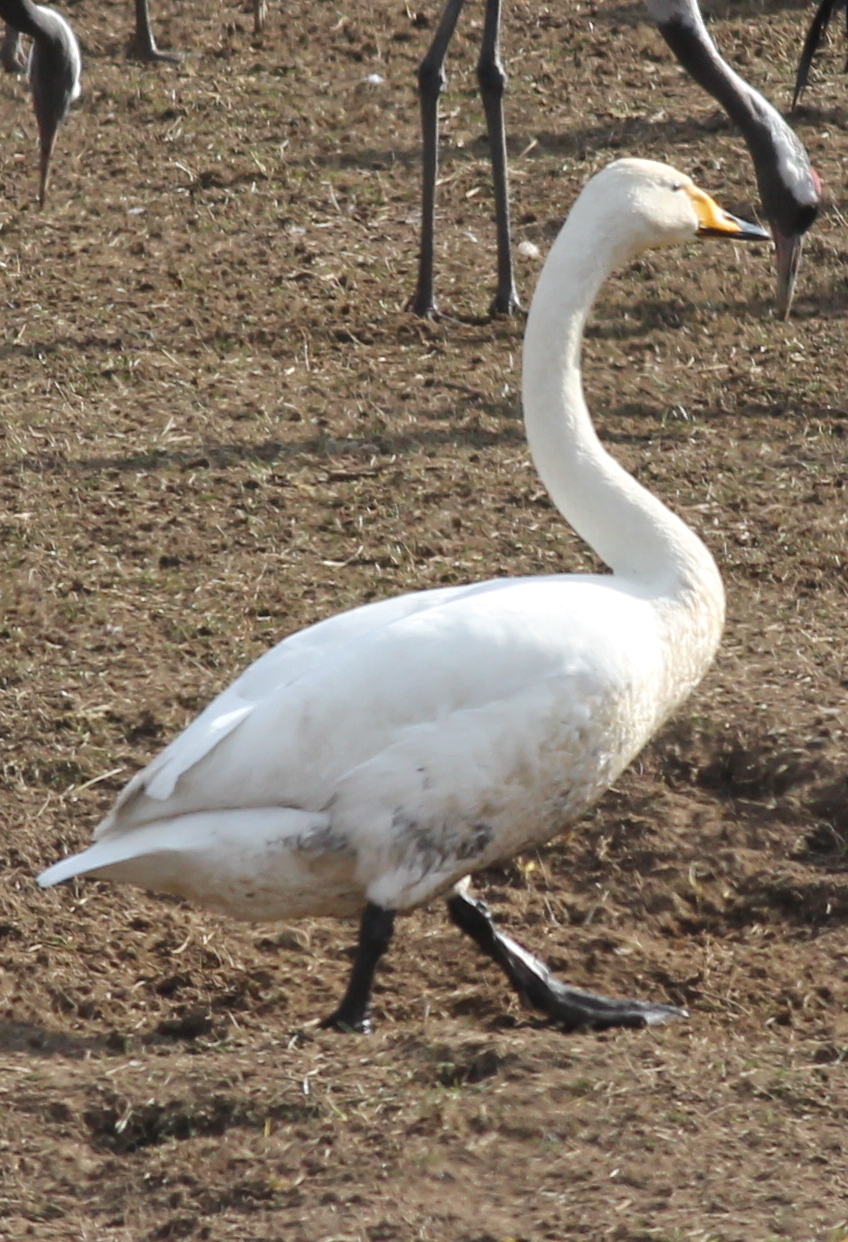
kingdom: Animalia
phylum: Chordata
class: Aves
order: Anseriformes
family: Anatidae
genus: Cygnus
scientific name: Cygnus cygnus
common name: Whooper swan
